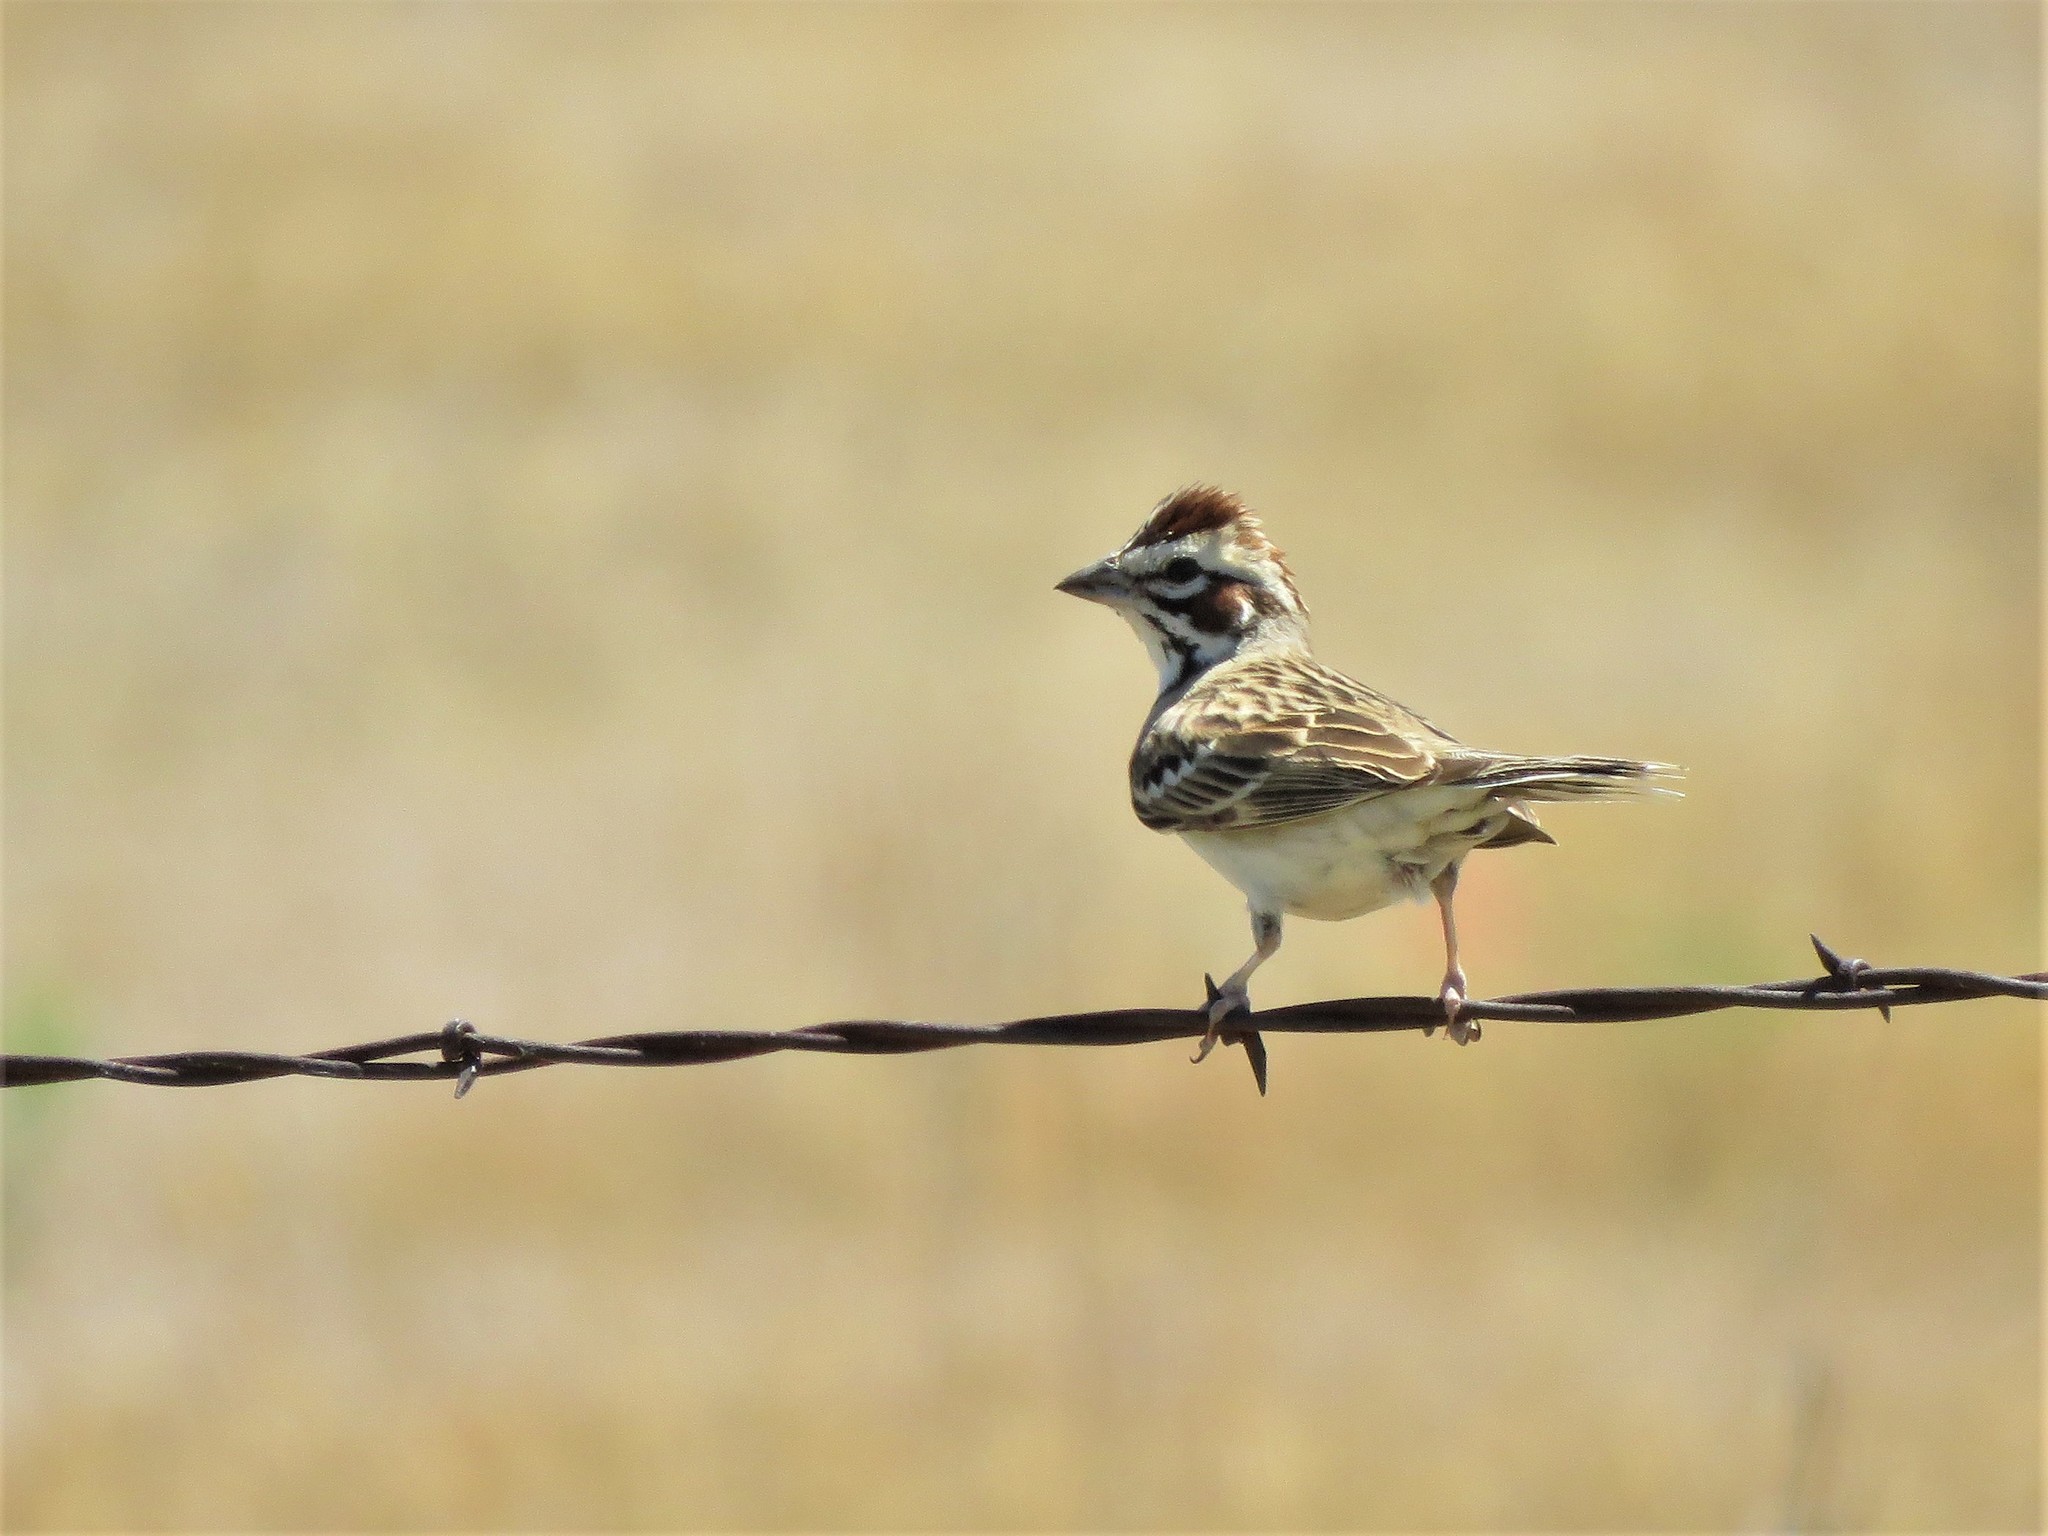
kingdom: Animalia
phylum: Chordata
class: Aves
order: Passeriformes
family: Passerellidae
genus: Chondestes
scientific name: Chondestes grammacus
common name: Lark sparrow
